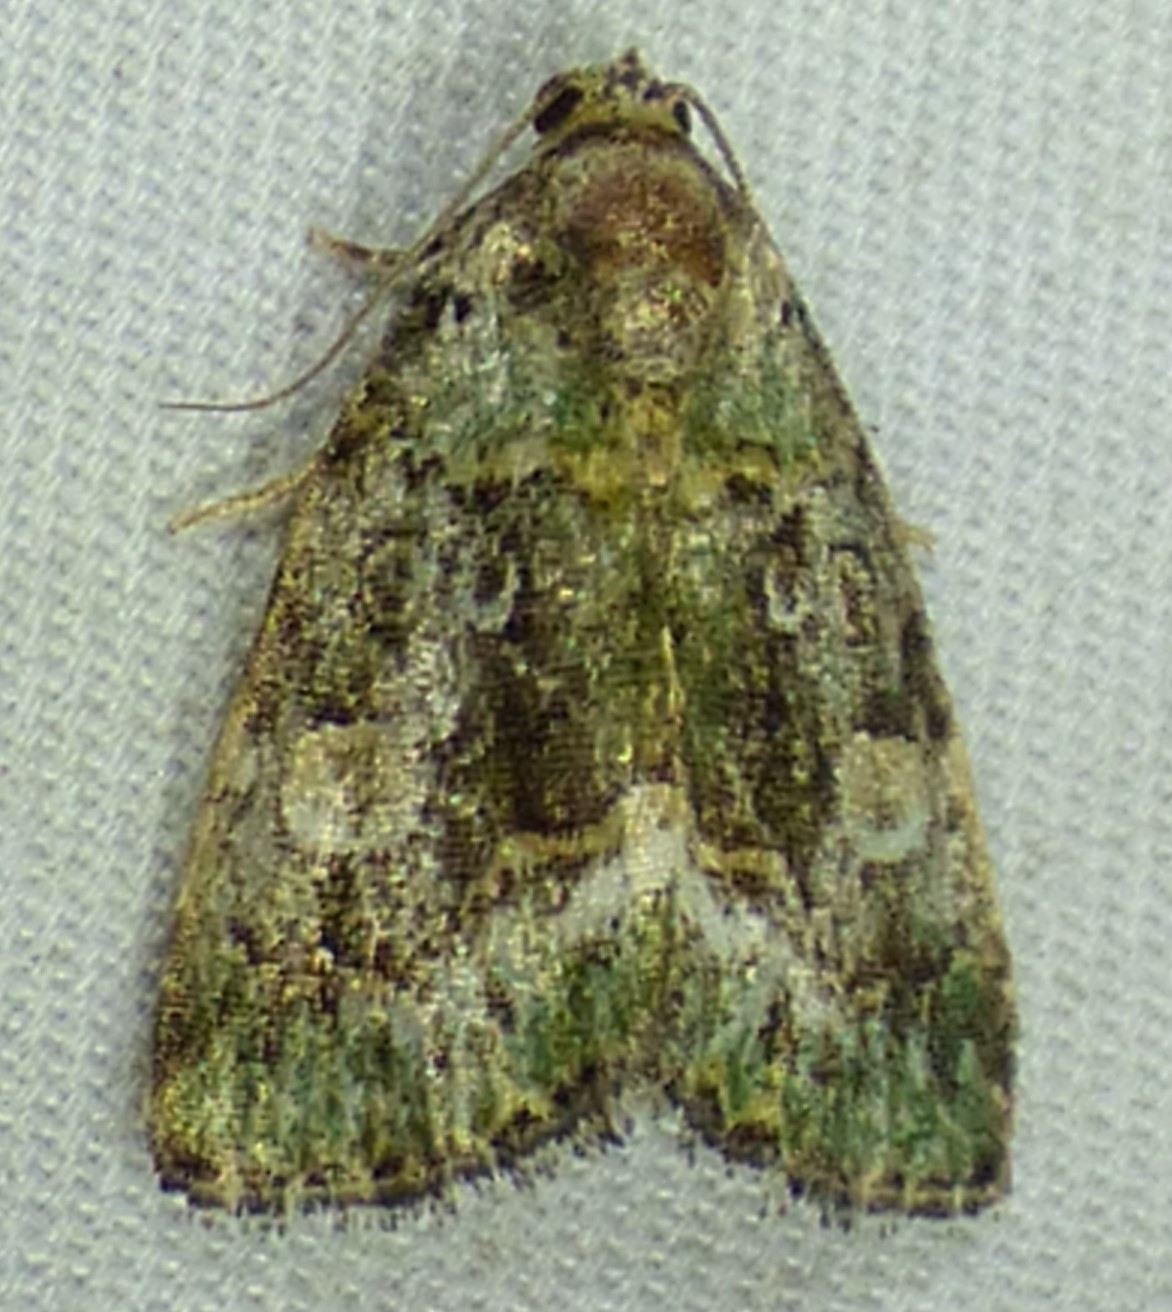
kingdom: Animalia
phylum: Arthropoda
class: Insecta
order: Lepidoptera
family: Noctuidae
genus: Lithacodia
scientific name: Lithacodia musta
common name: Small mossy glyph
